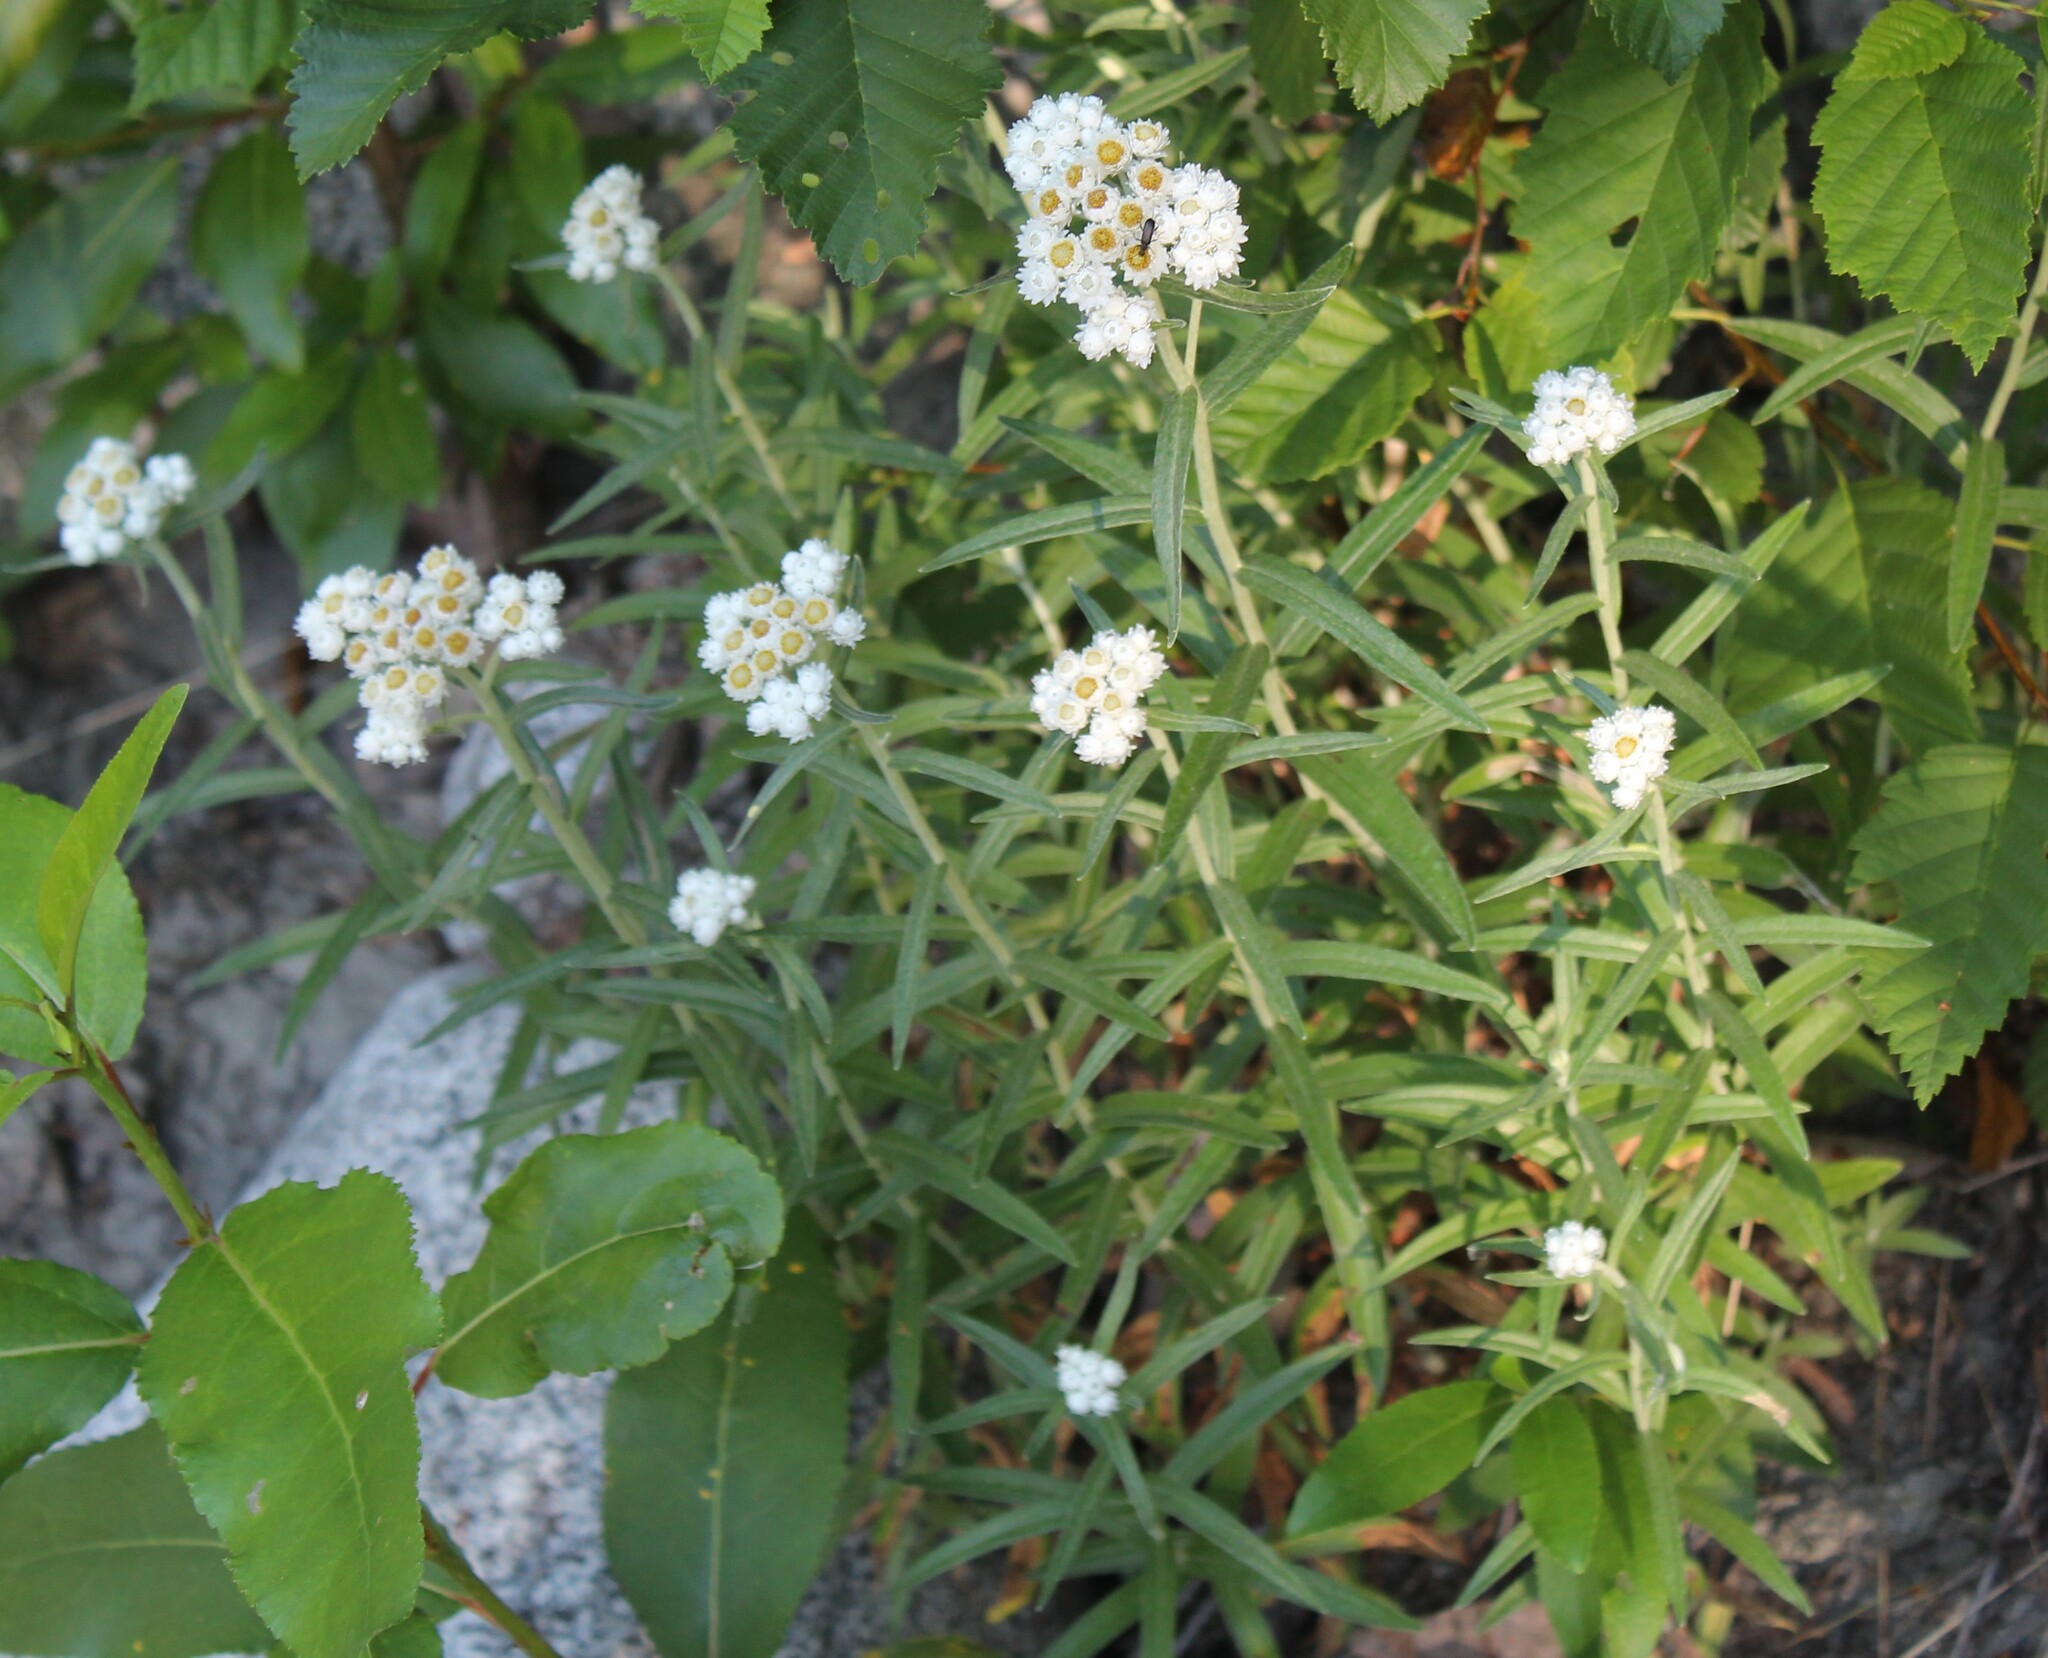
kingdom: Plantae
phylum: Tracheophyta
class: Magnoliopsida
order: Asterales
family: Asteraceae
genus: Anaphalis
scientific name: Anaphalis margaritacea
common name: Pearly everlasting
